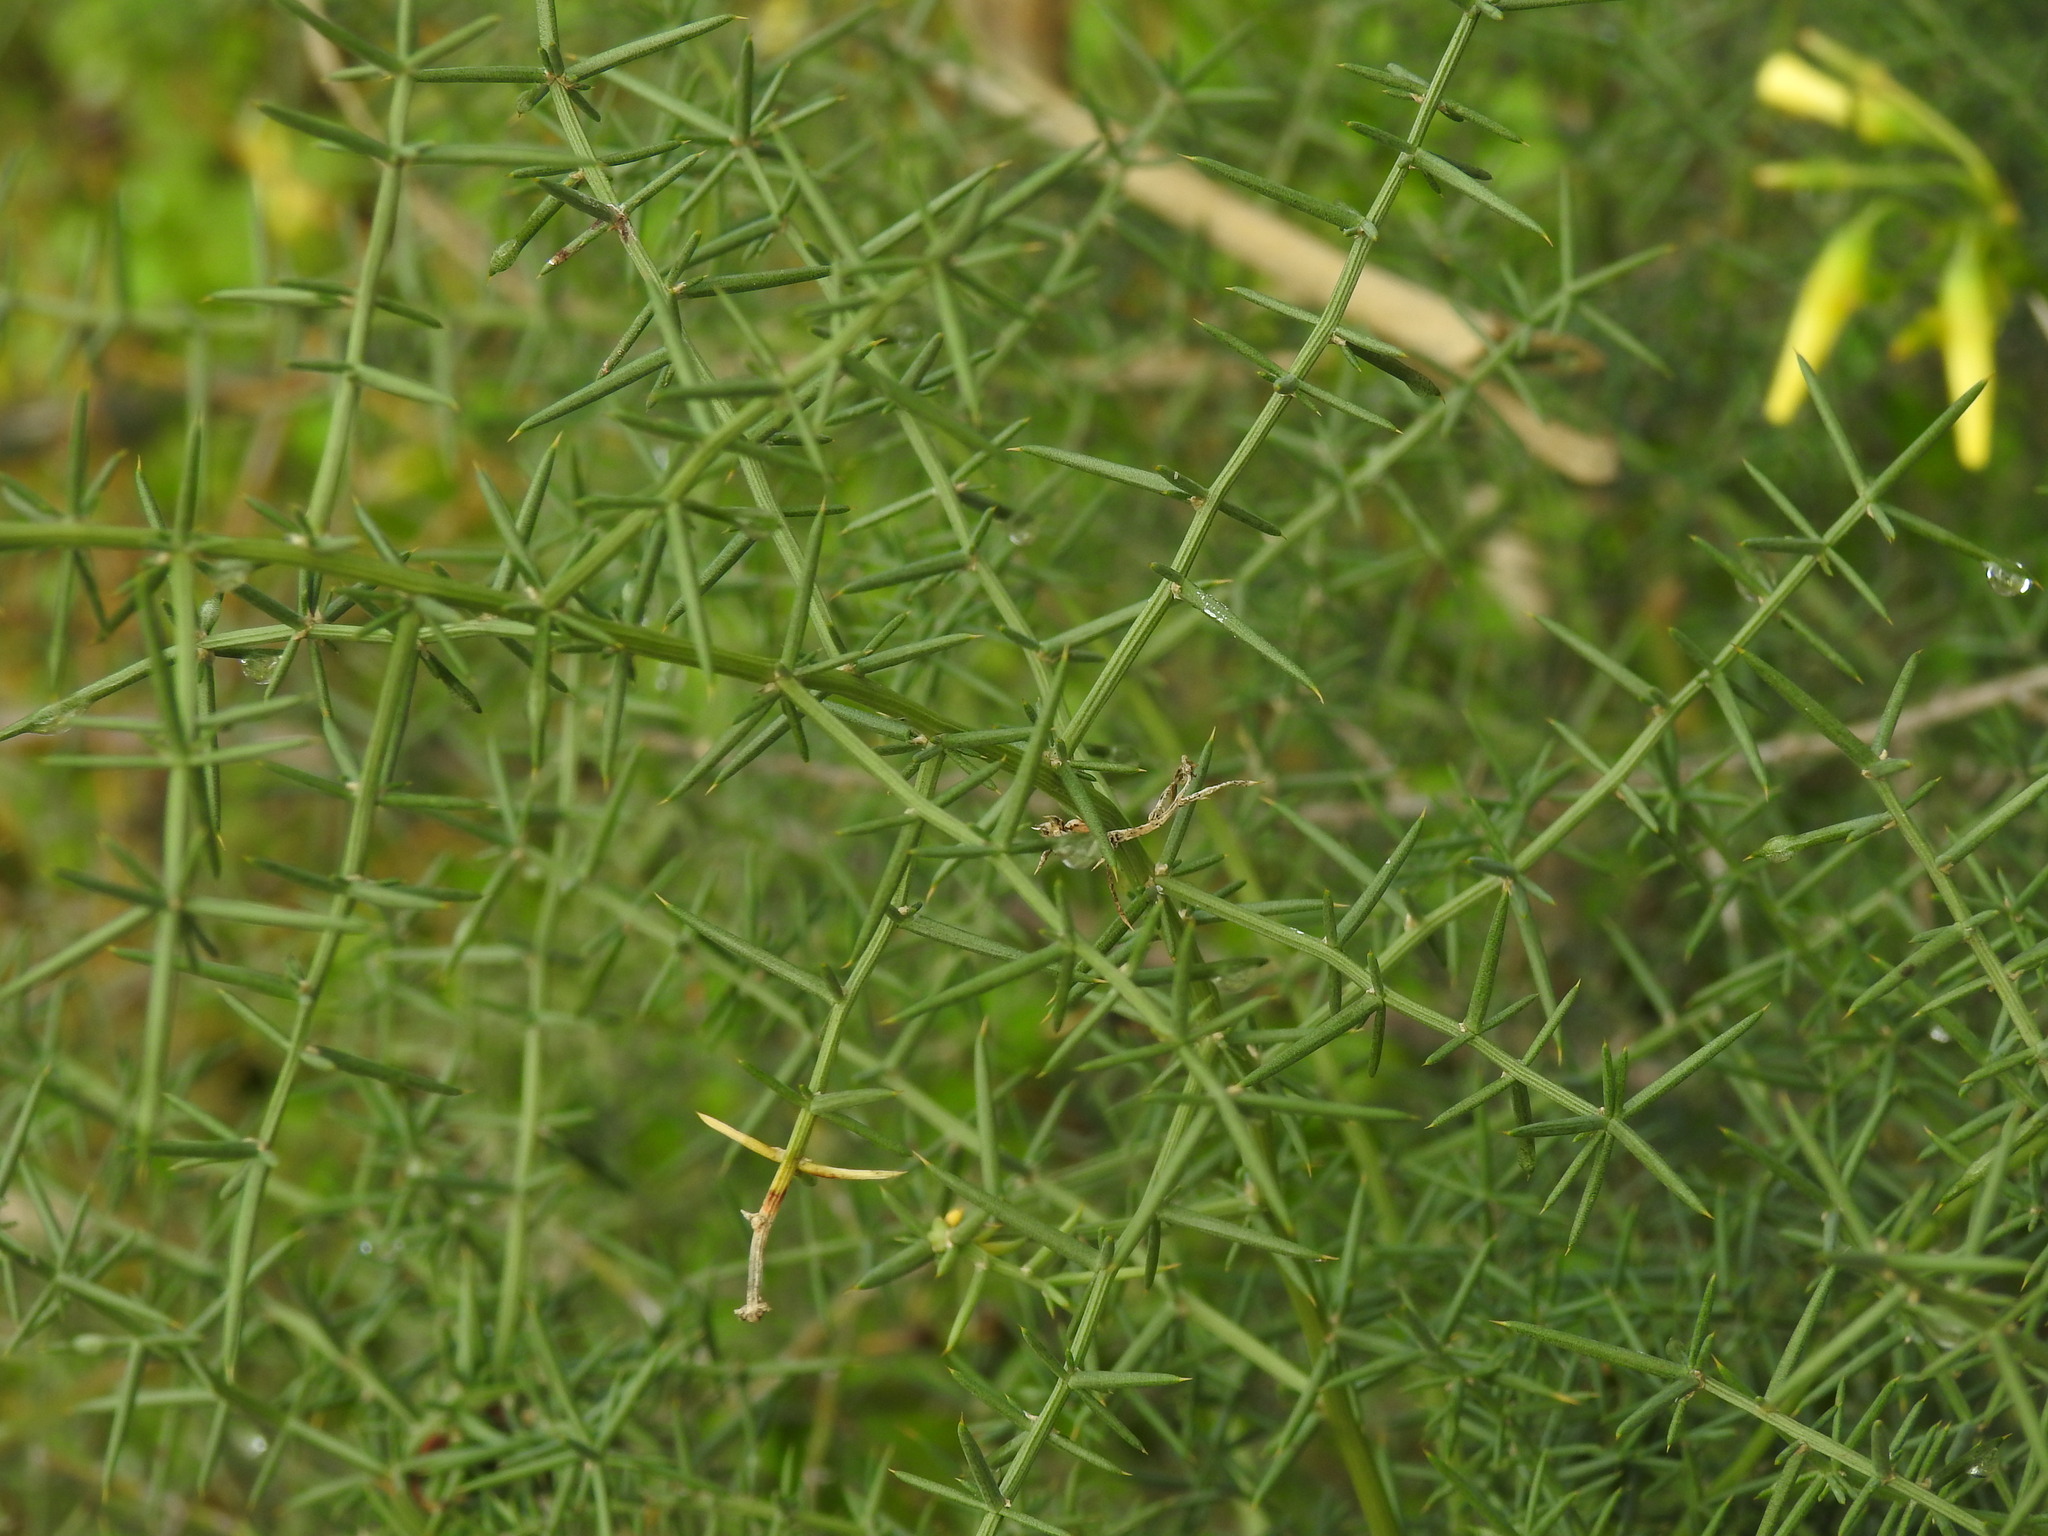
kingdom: Plantae
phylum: Tracheophyta
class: Liliopsida
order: Asparagales
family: Asparagaceae
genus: Asparagus
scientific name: Asparagus aphyllus
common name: Mediterranean asparagus
